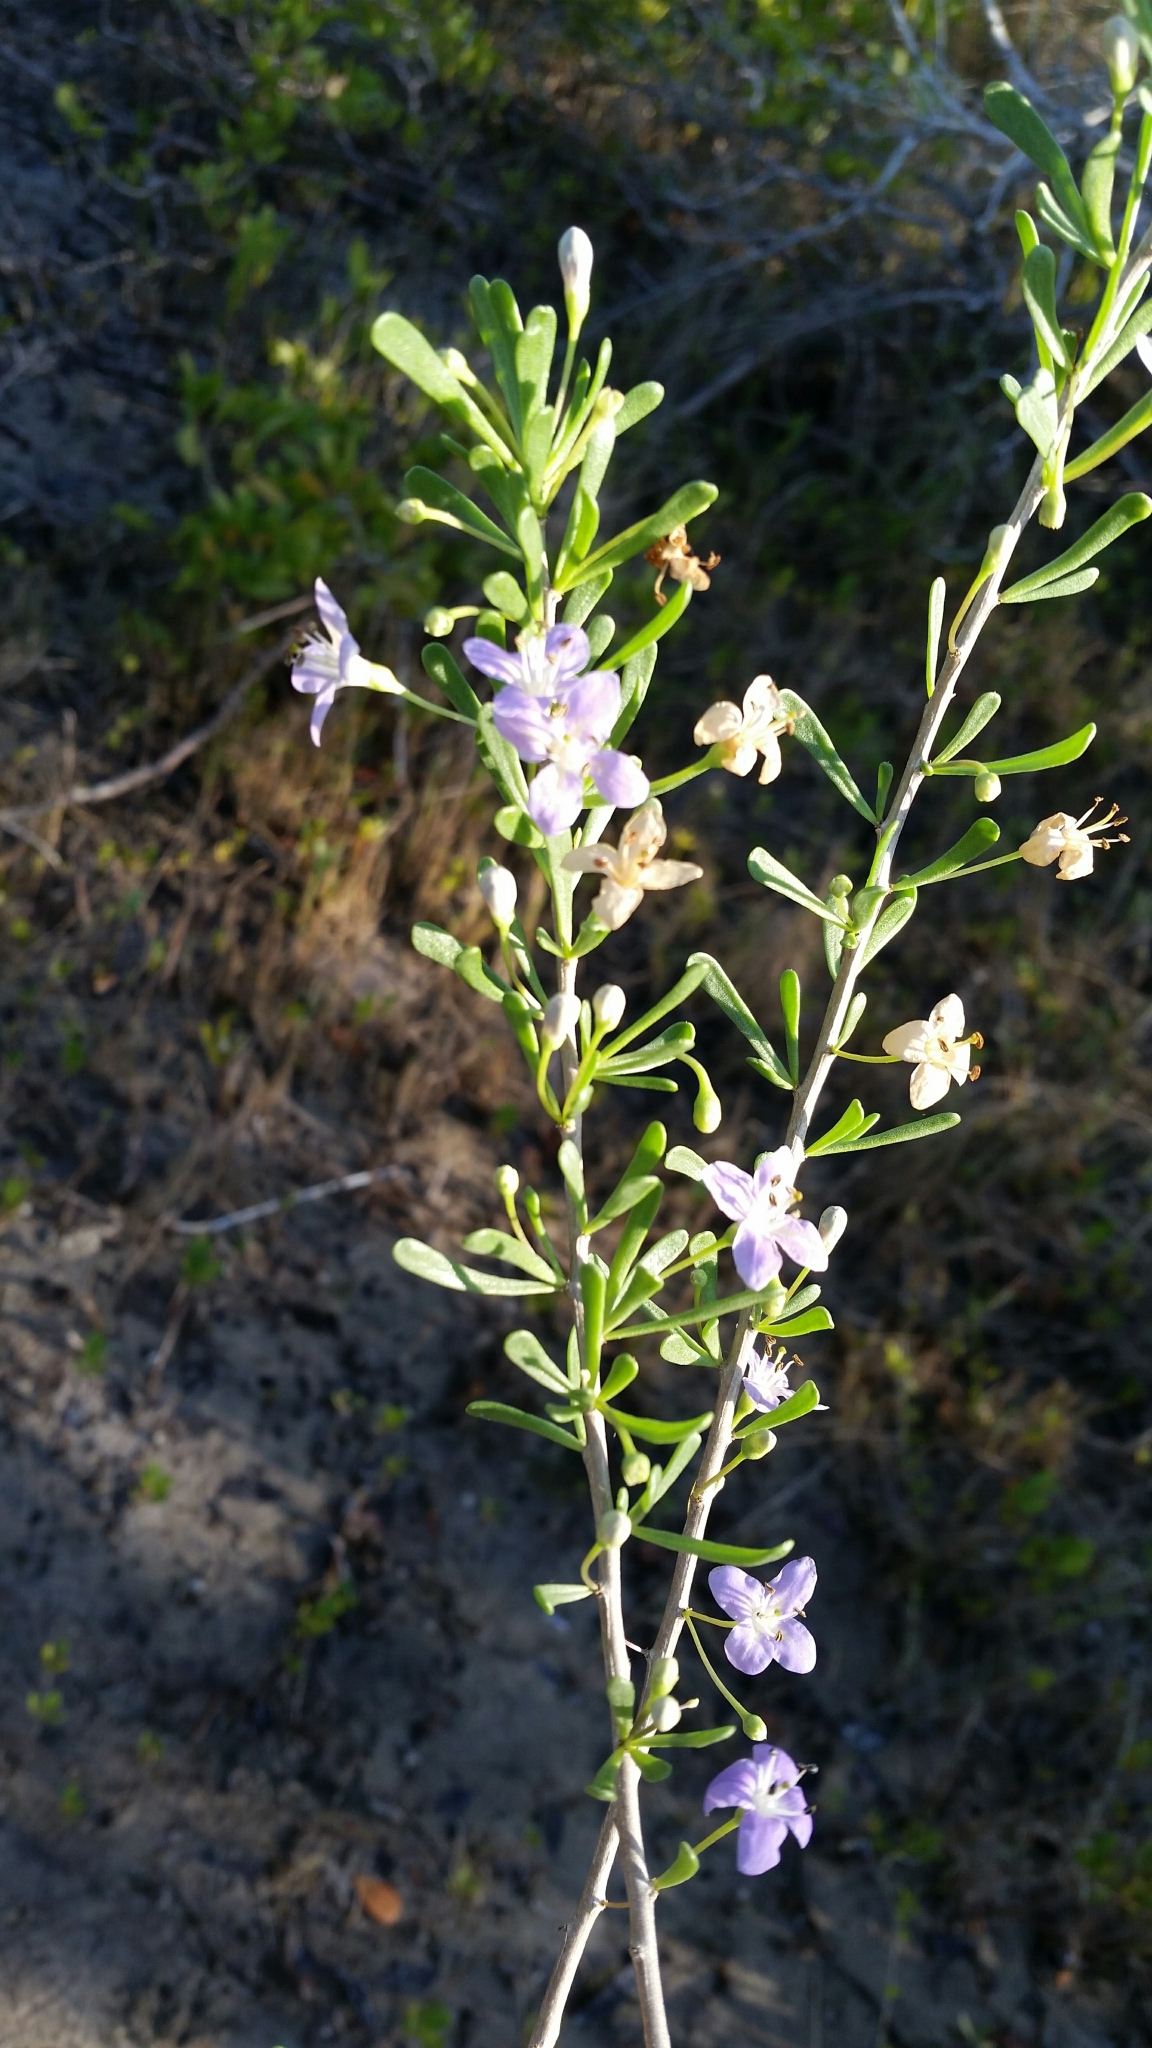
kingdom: Plantae
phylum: Tracheophyta
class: Magnoliopsida
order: Solanales
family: Solanaceae
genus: Lycium
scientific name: Lycium carolinianum
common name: Christmasberry
